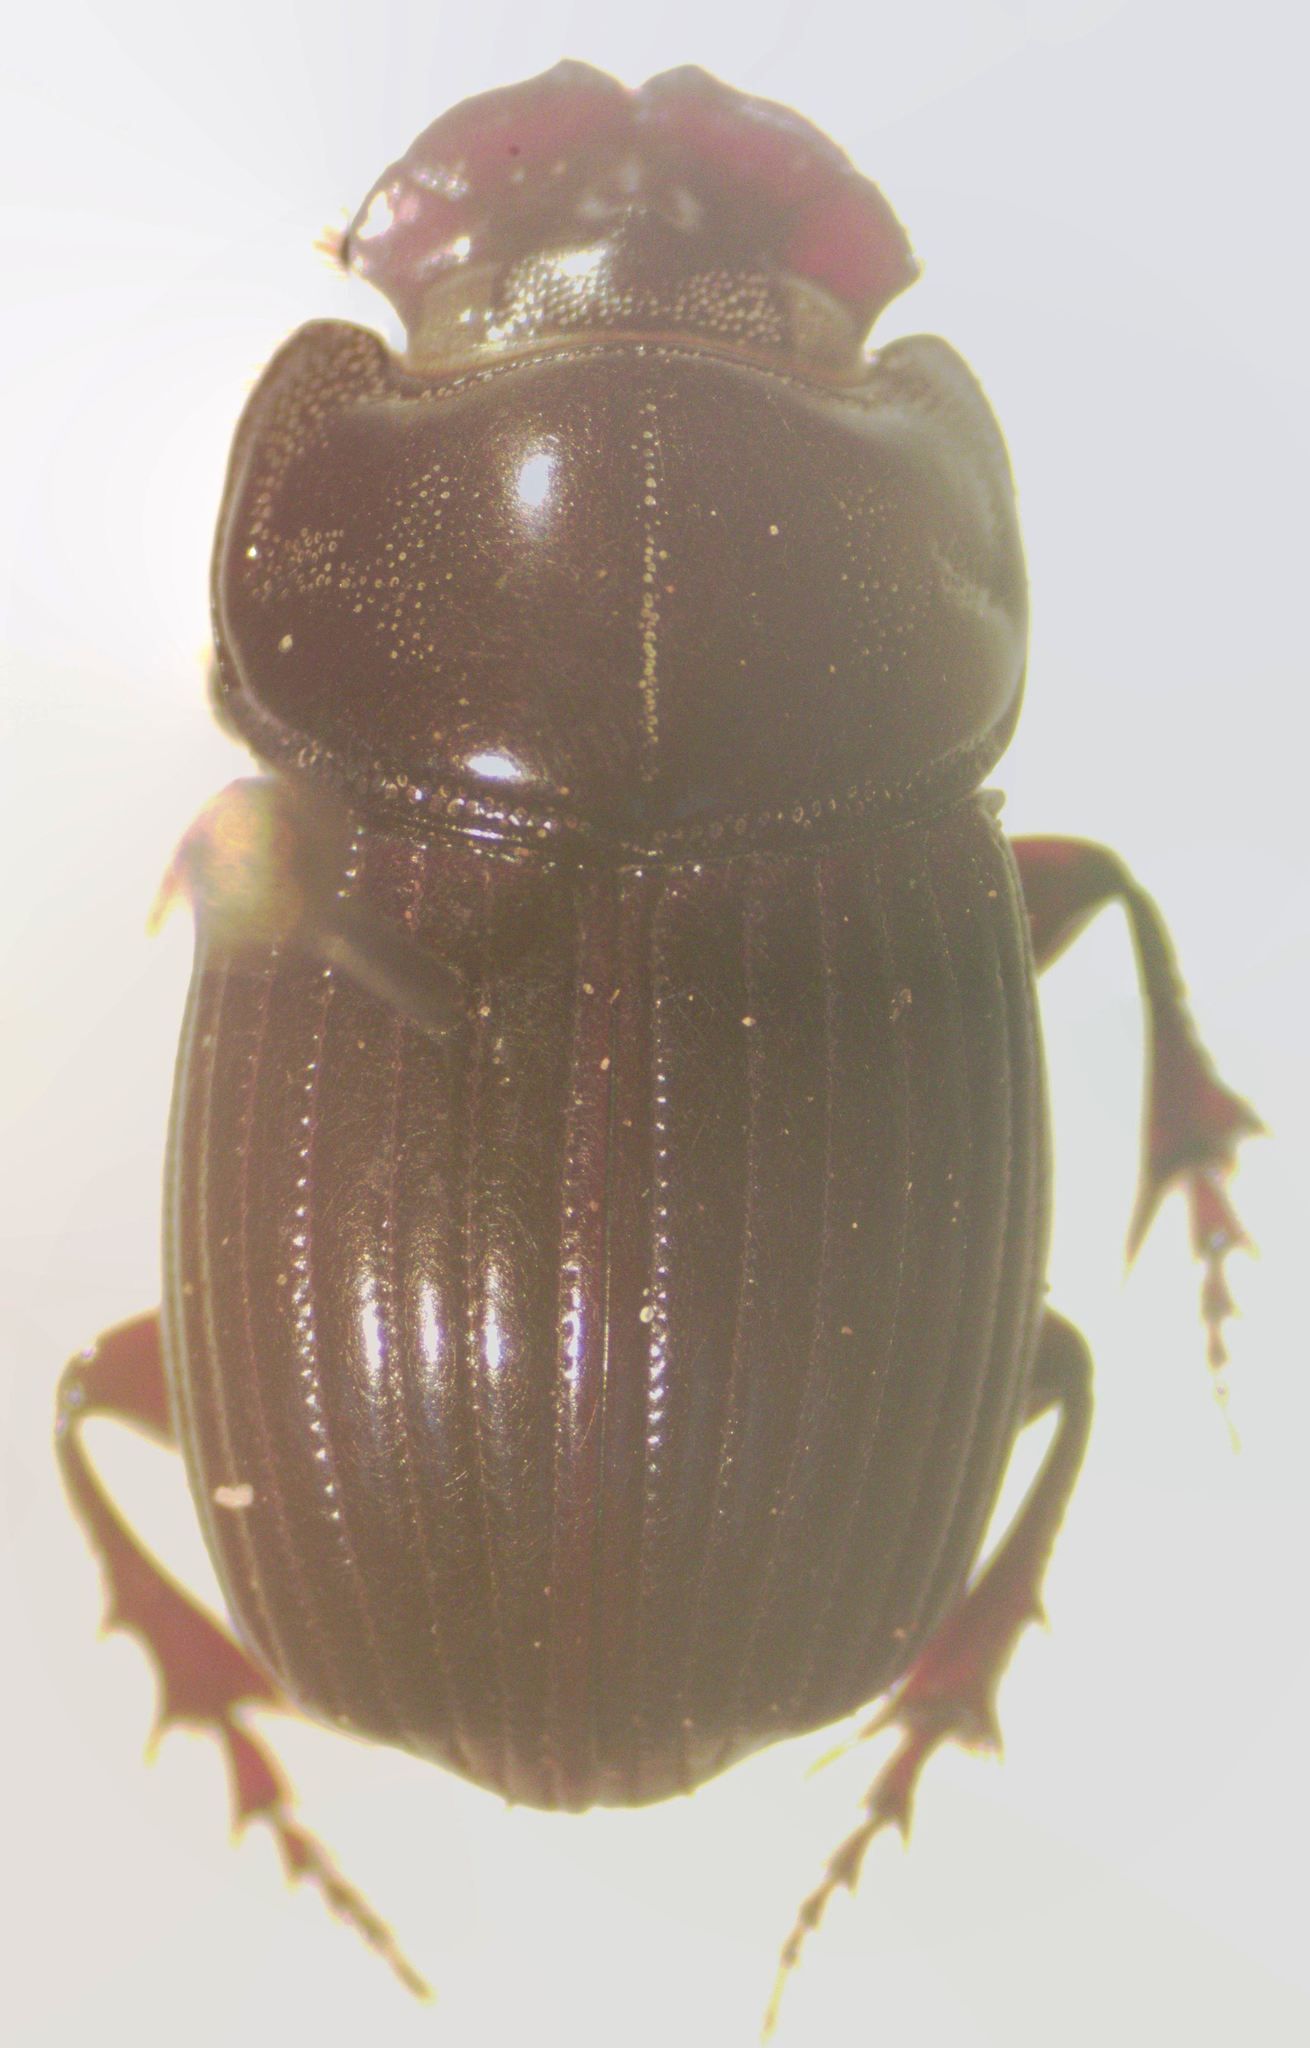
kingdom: Animalia
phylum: Arthropoda
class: Insecta
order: Coleoptera
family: Scarabaeidae
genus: Copris
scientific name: Copris laeviceps
